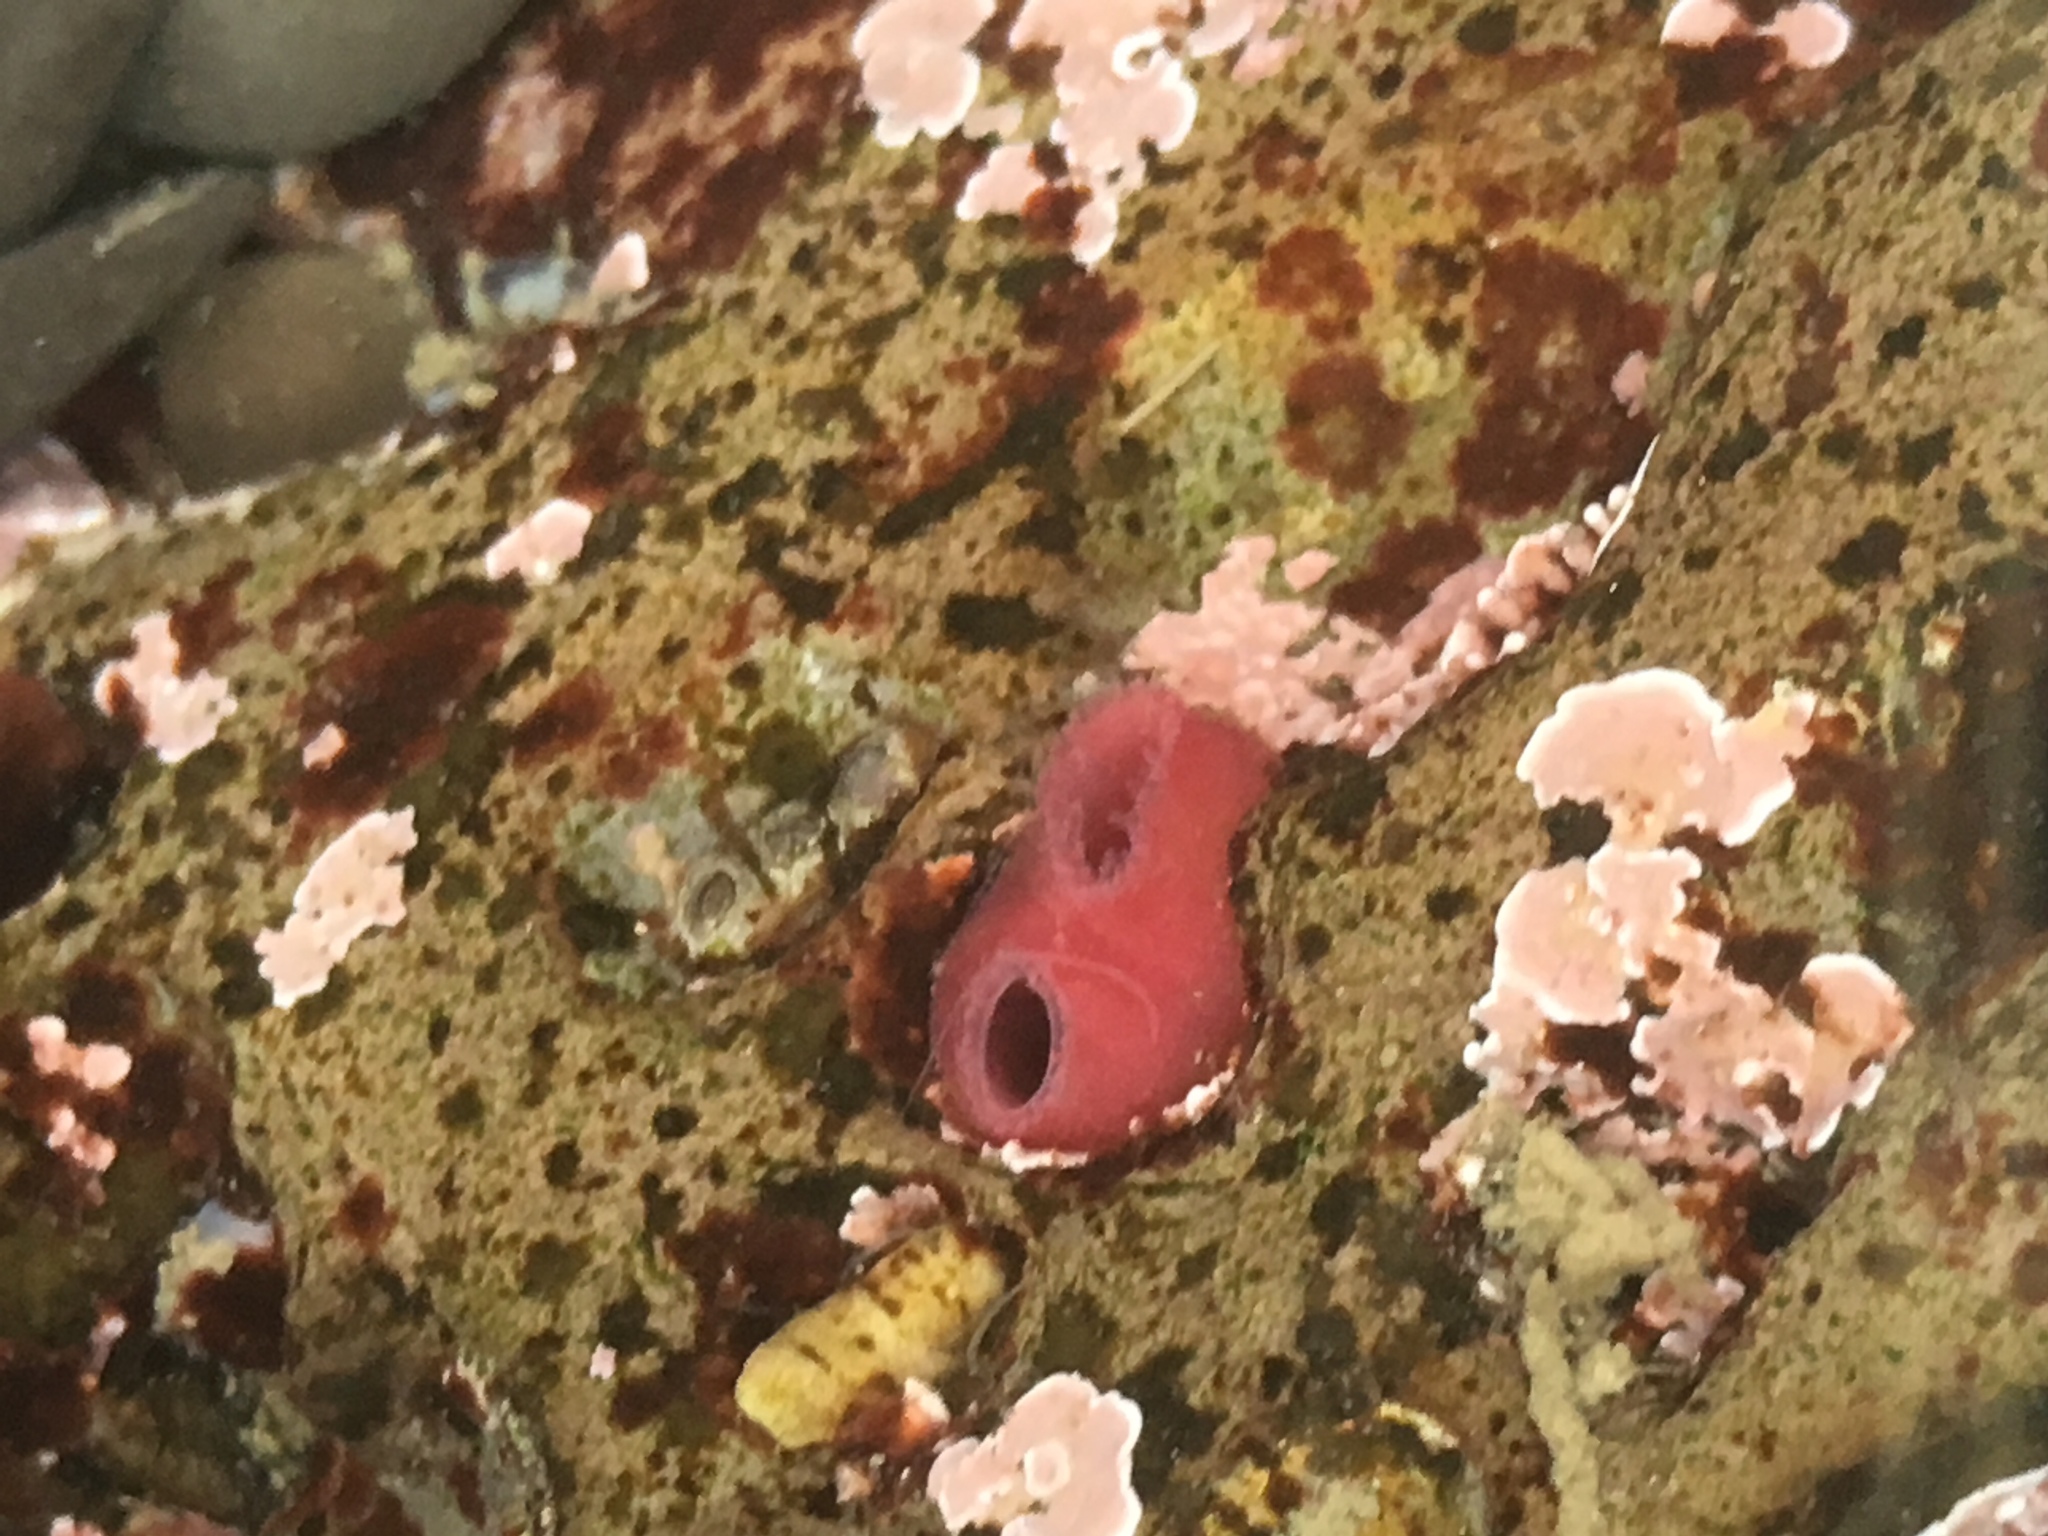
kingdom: Animalia
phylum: Mollusca
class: Bivalvia
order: Adapedonta
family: Hiatellidae
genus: Hiatella
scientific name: Hiatella arctica
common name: Arctic hiatella
